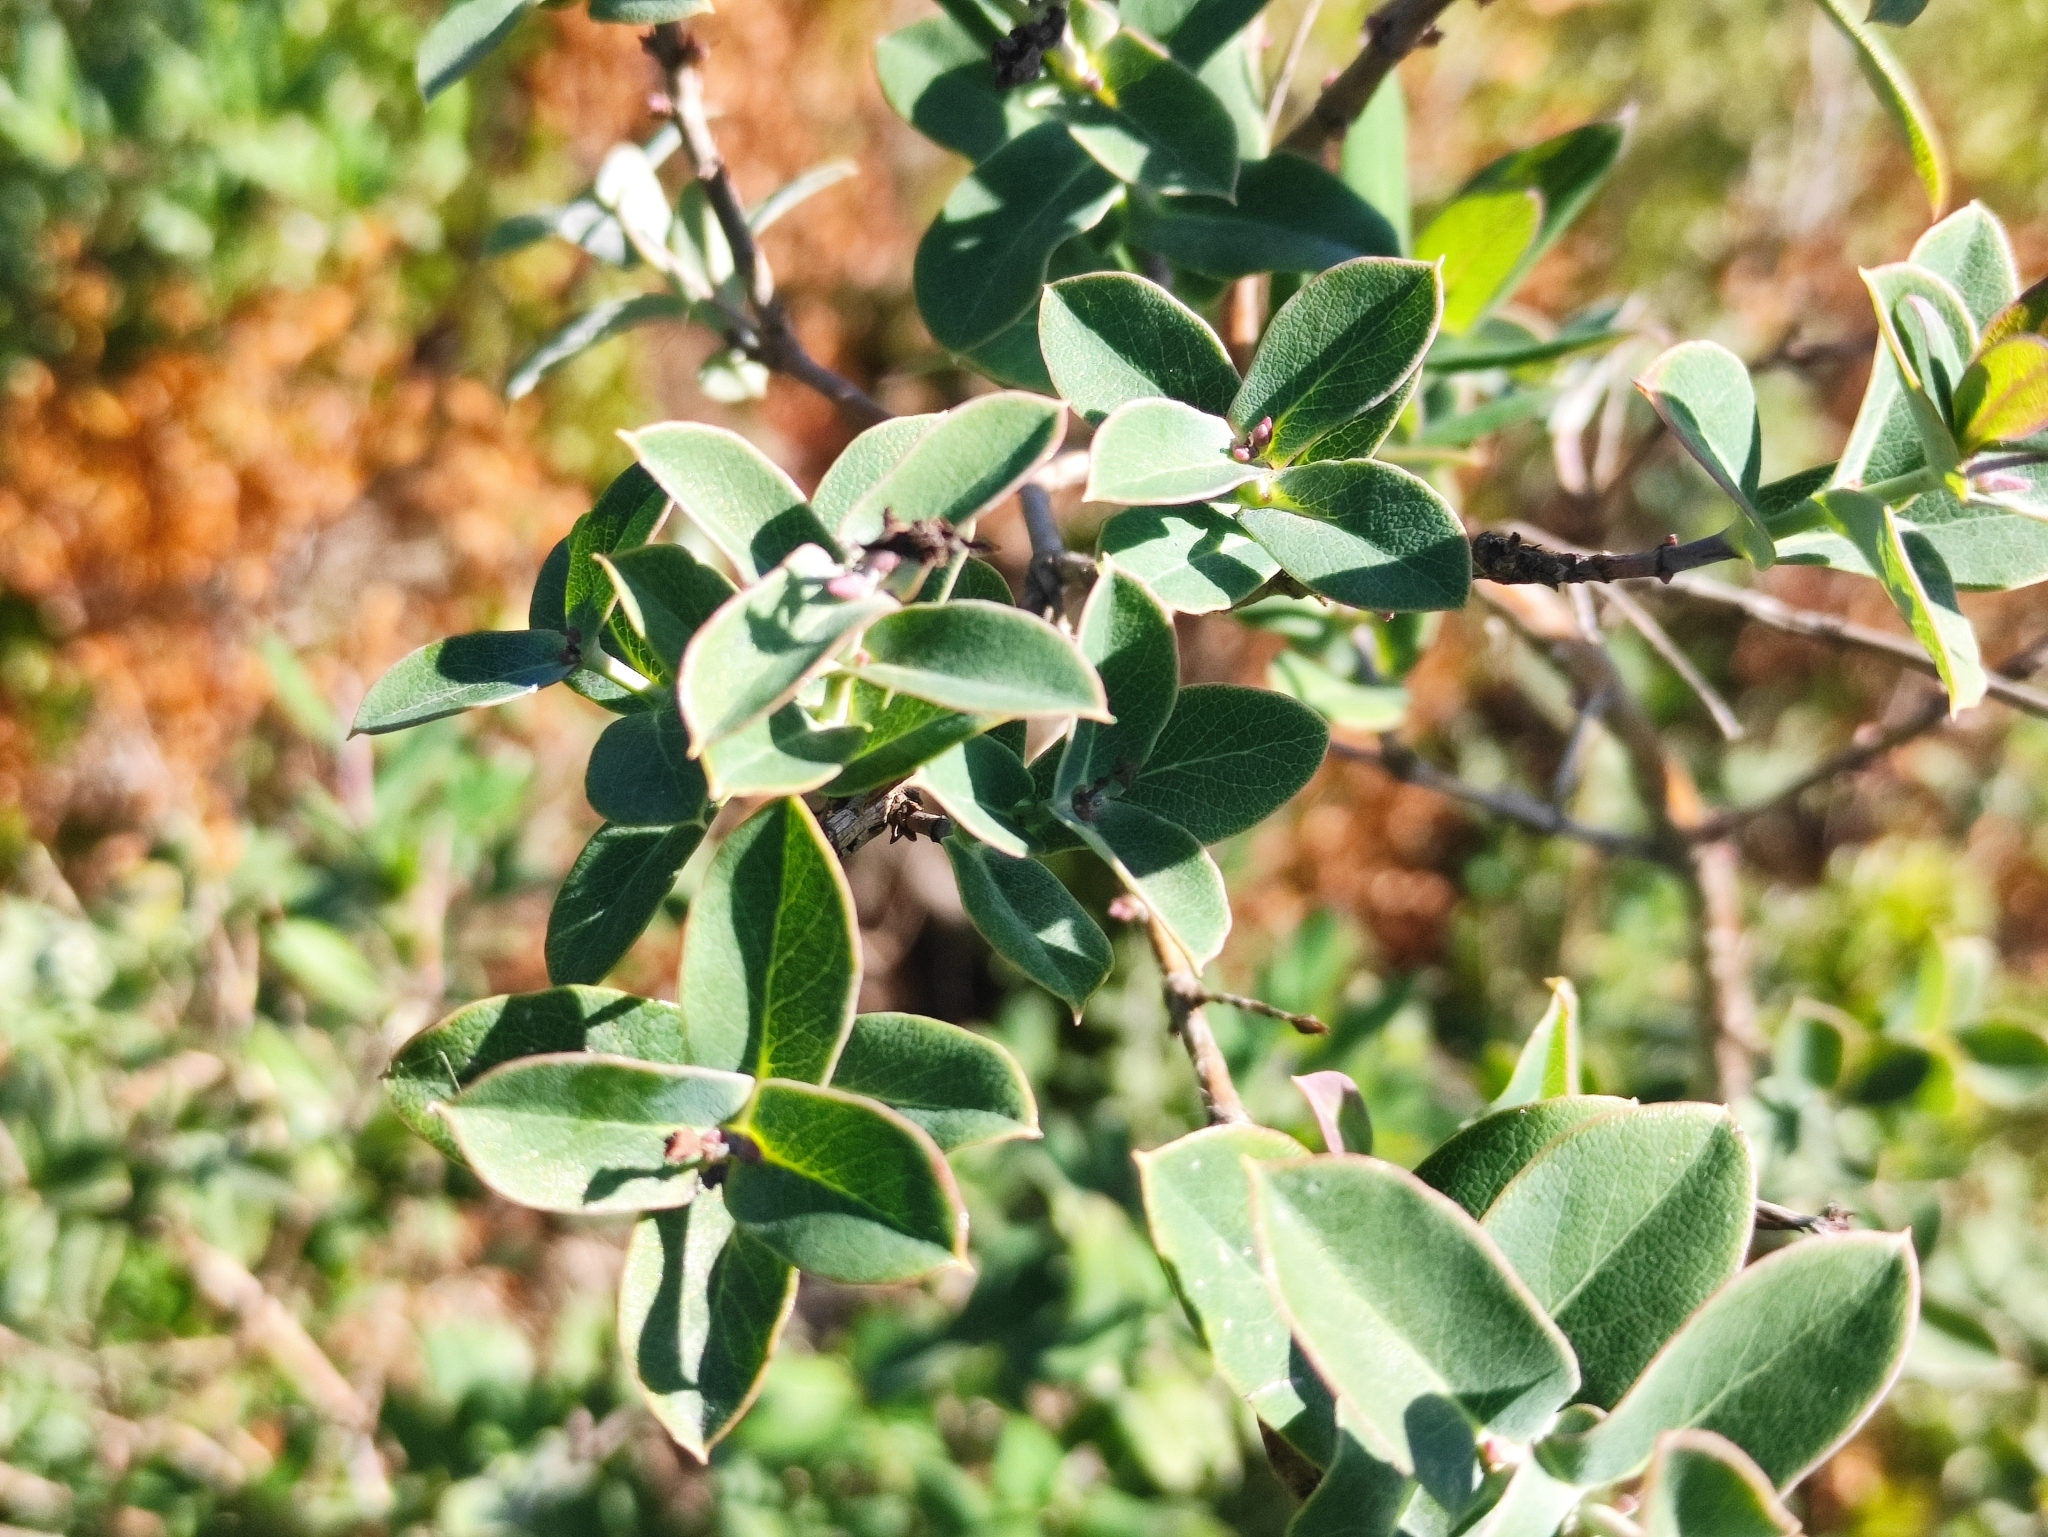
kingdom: Plantae
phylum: Tracheophyta
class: Magnoliopsida
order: Dipsacales
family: Caprifoliaceae
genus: Lonicera
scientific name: Lonicera implexa
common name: Minorca honeysuckle
